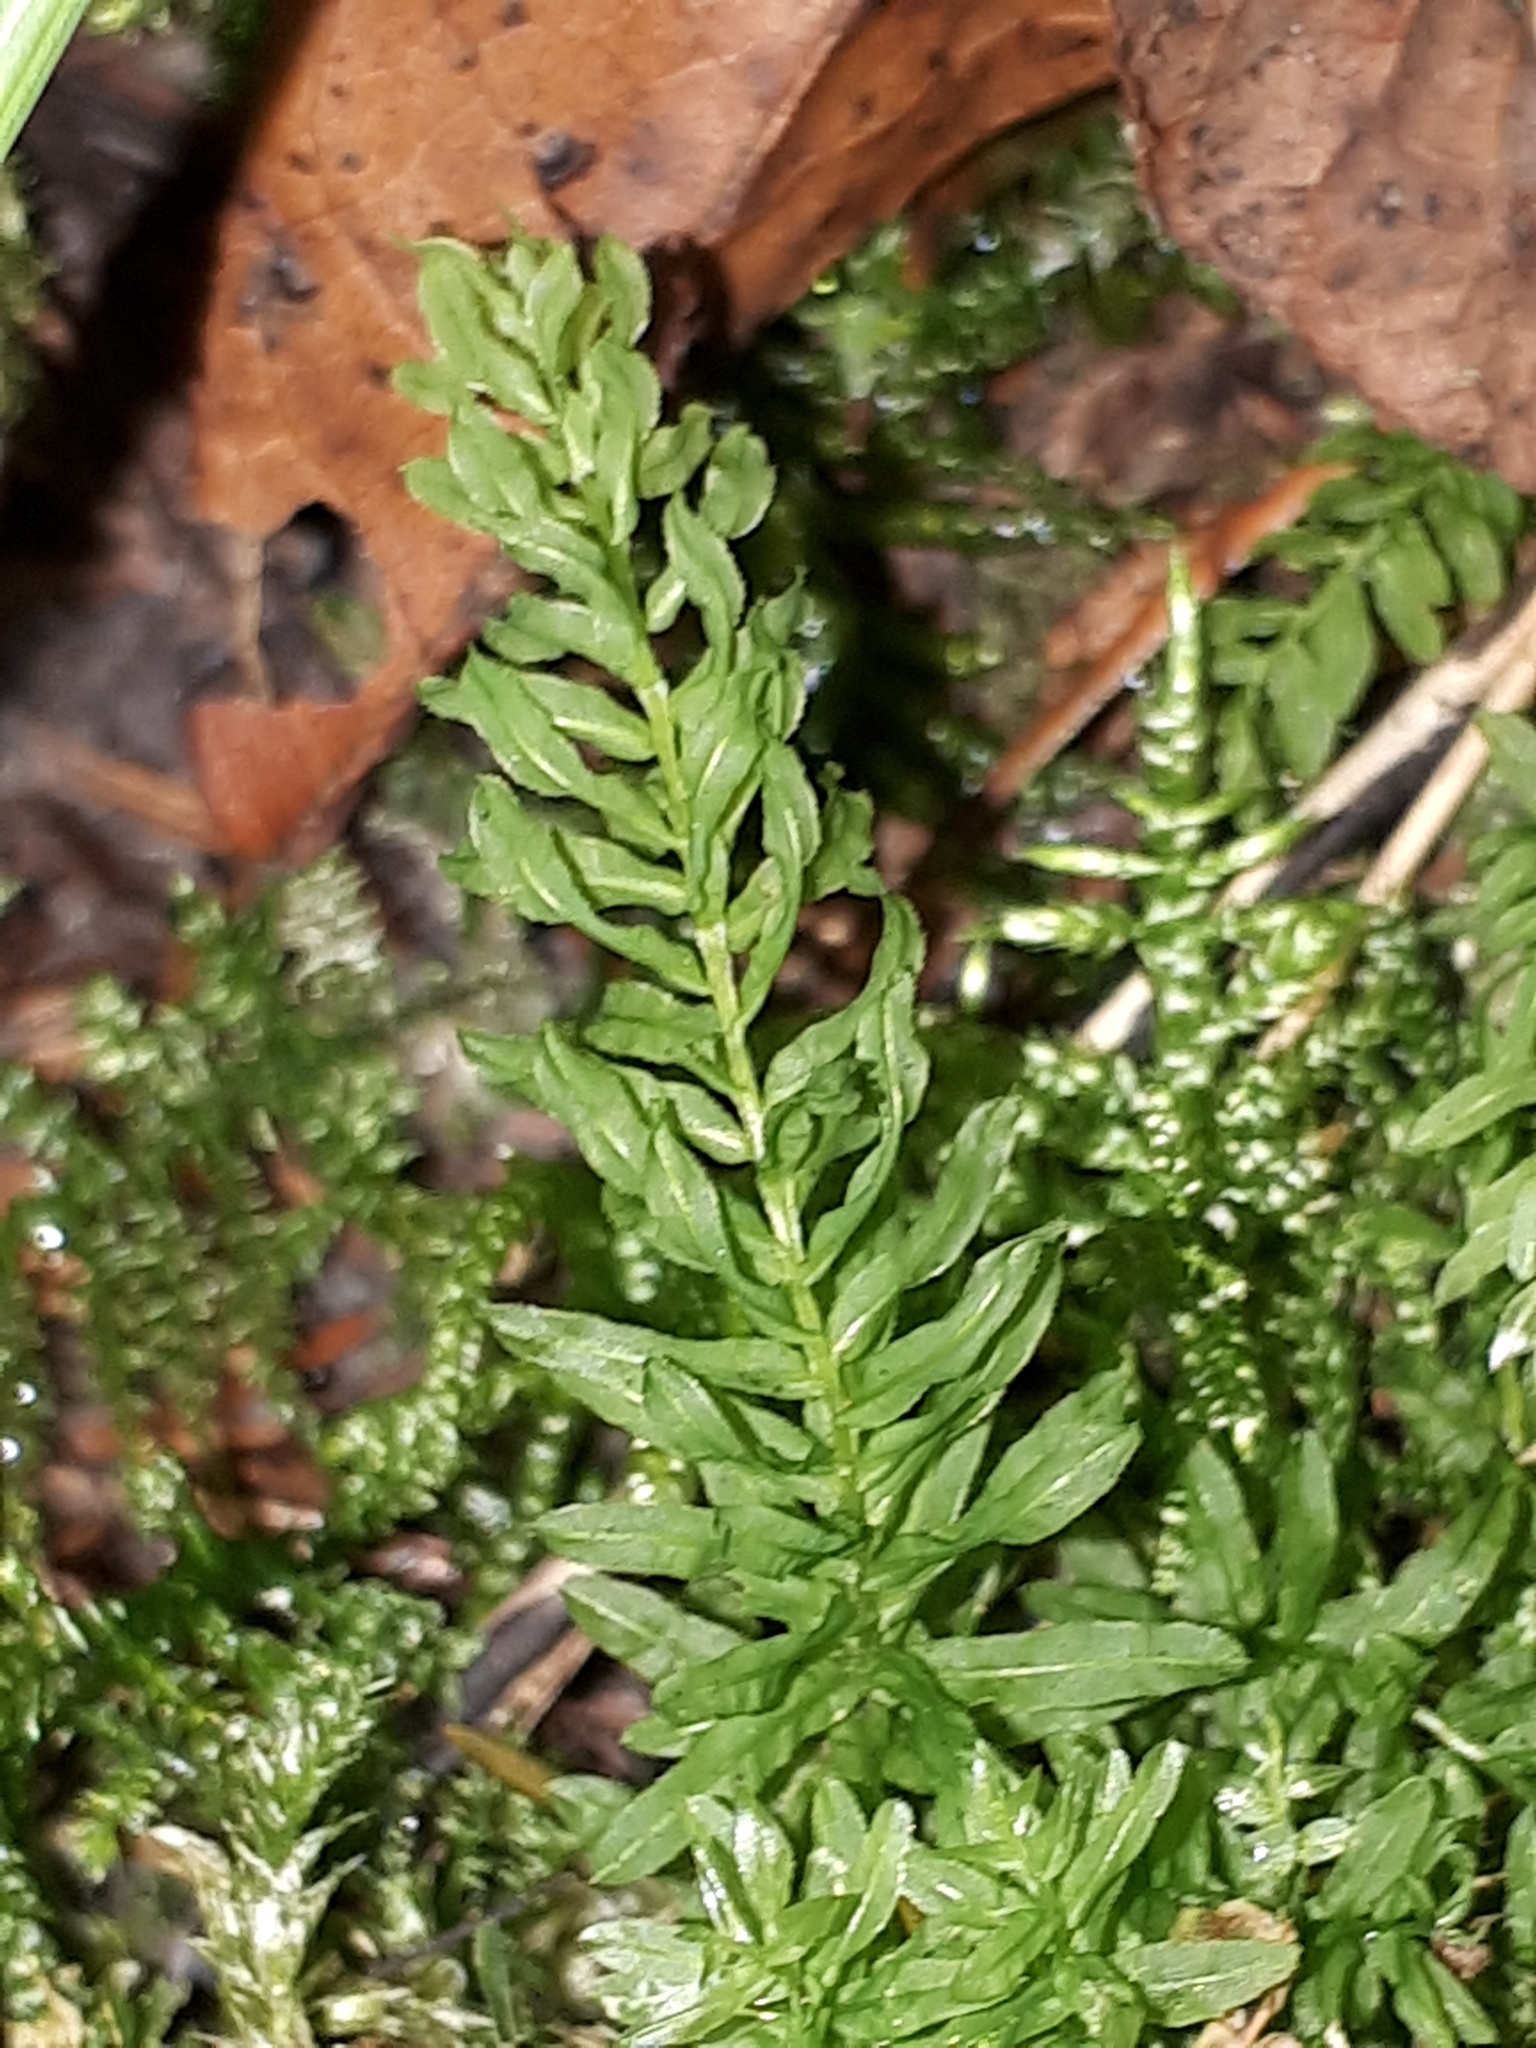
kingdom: Plantae
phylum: Bryophyta
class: Bryopsida
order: Bryales
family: Mniaceae
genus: Plagiomnium
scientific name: Plagiomnium undulatum
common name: Hart's-tongue thyme-moss
